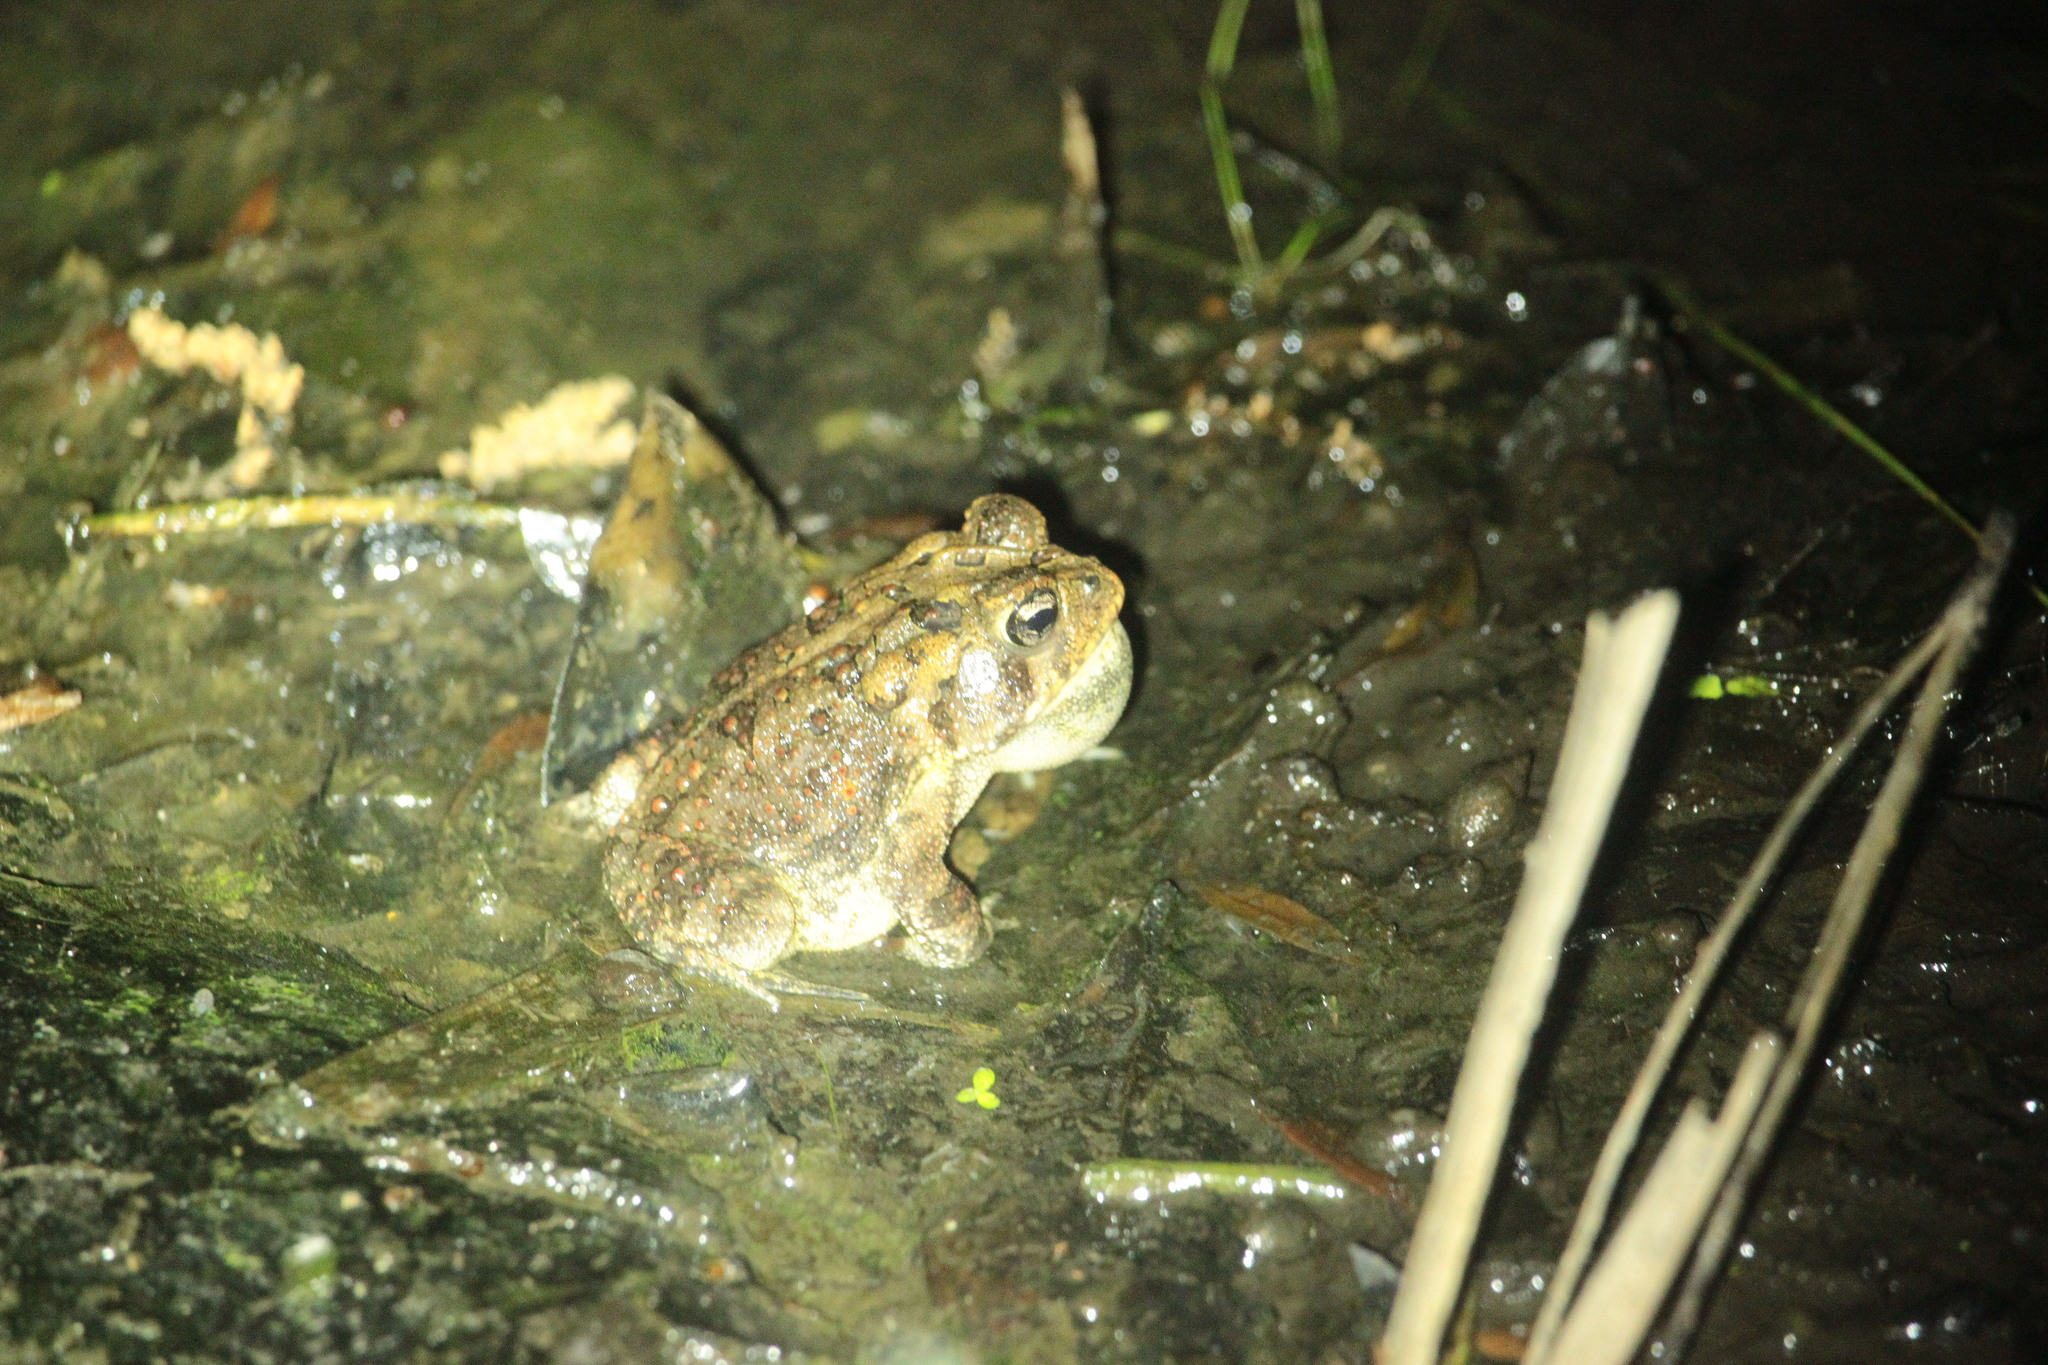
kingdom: Animalia
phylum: Chordata
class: Amphibia
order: Anura
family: Bufonidae
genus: Anaxyrus
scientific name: Anaxyrus terrestris
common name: Southern toad
